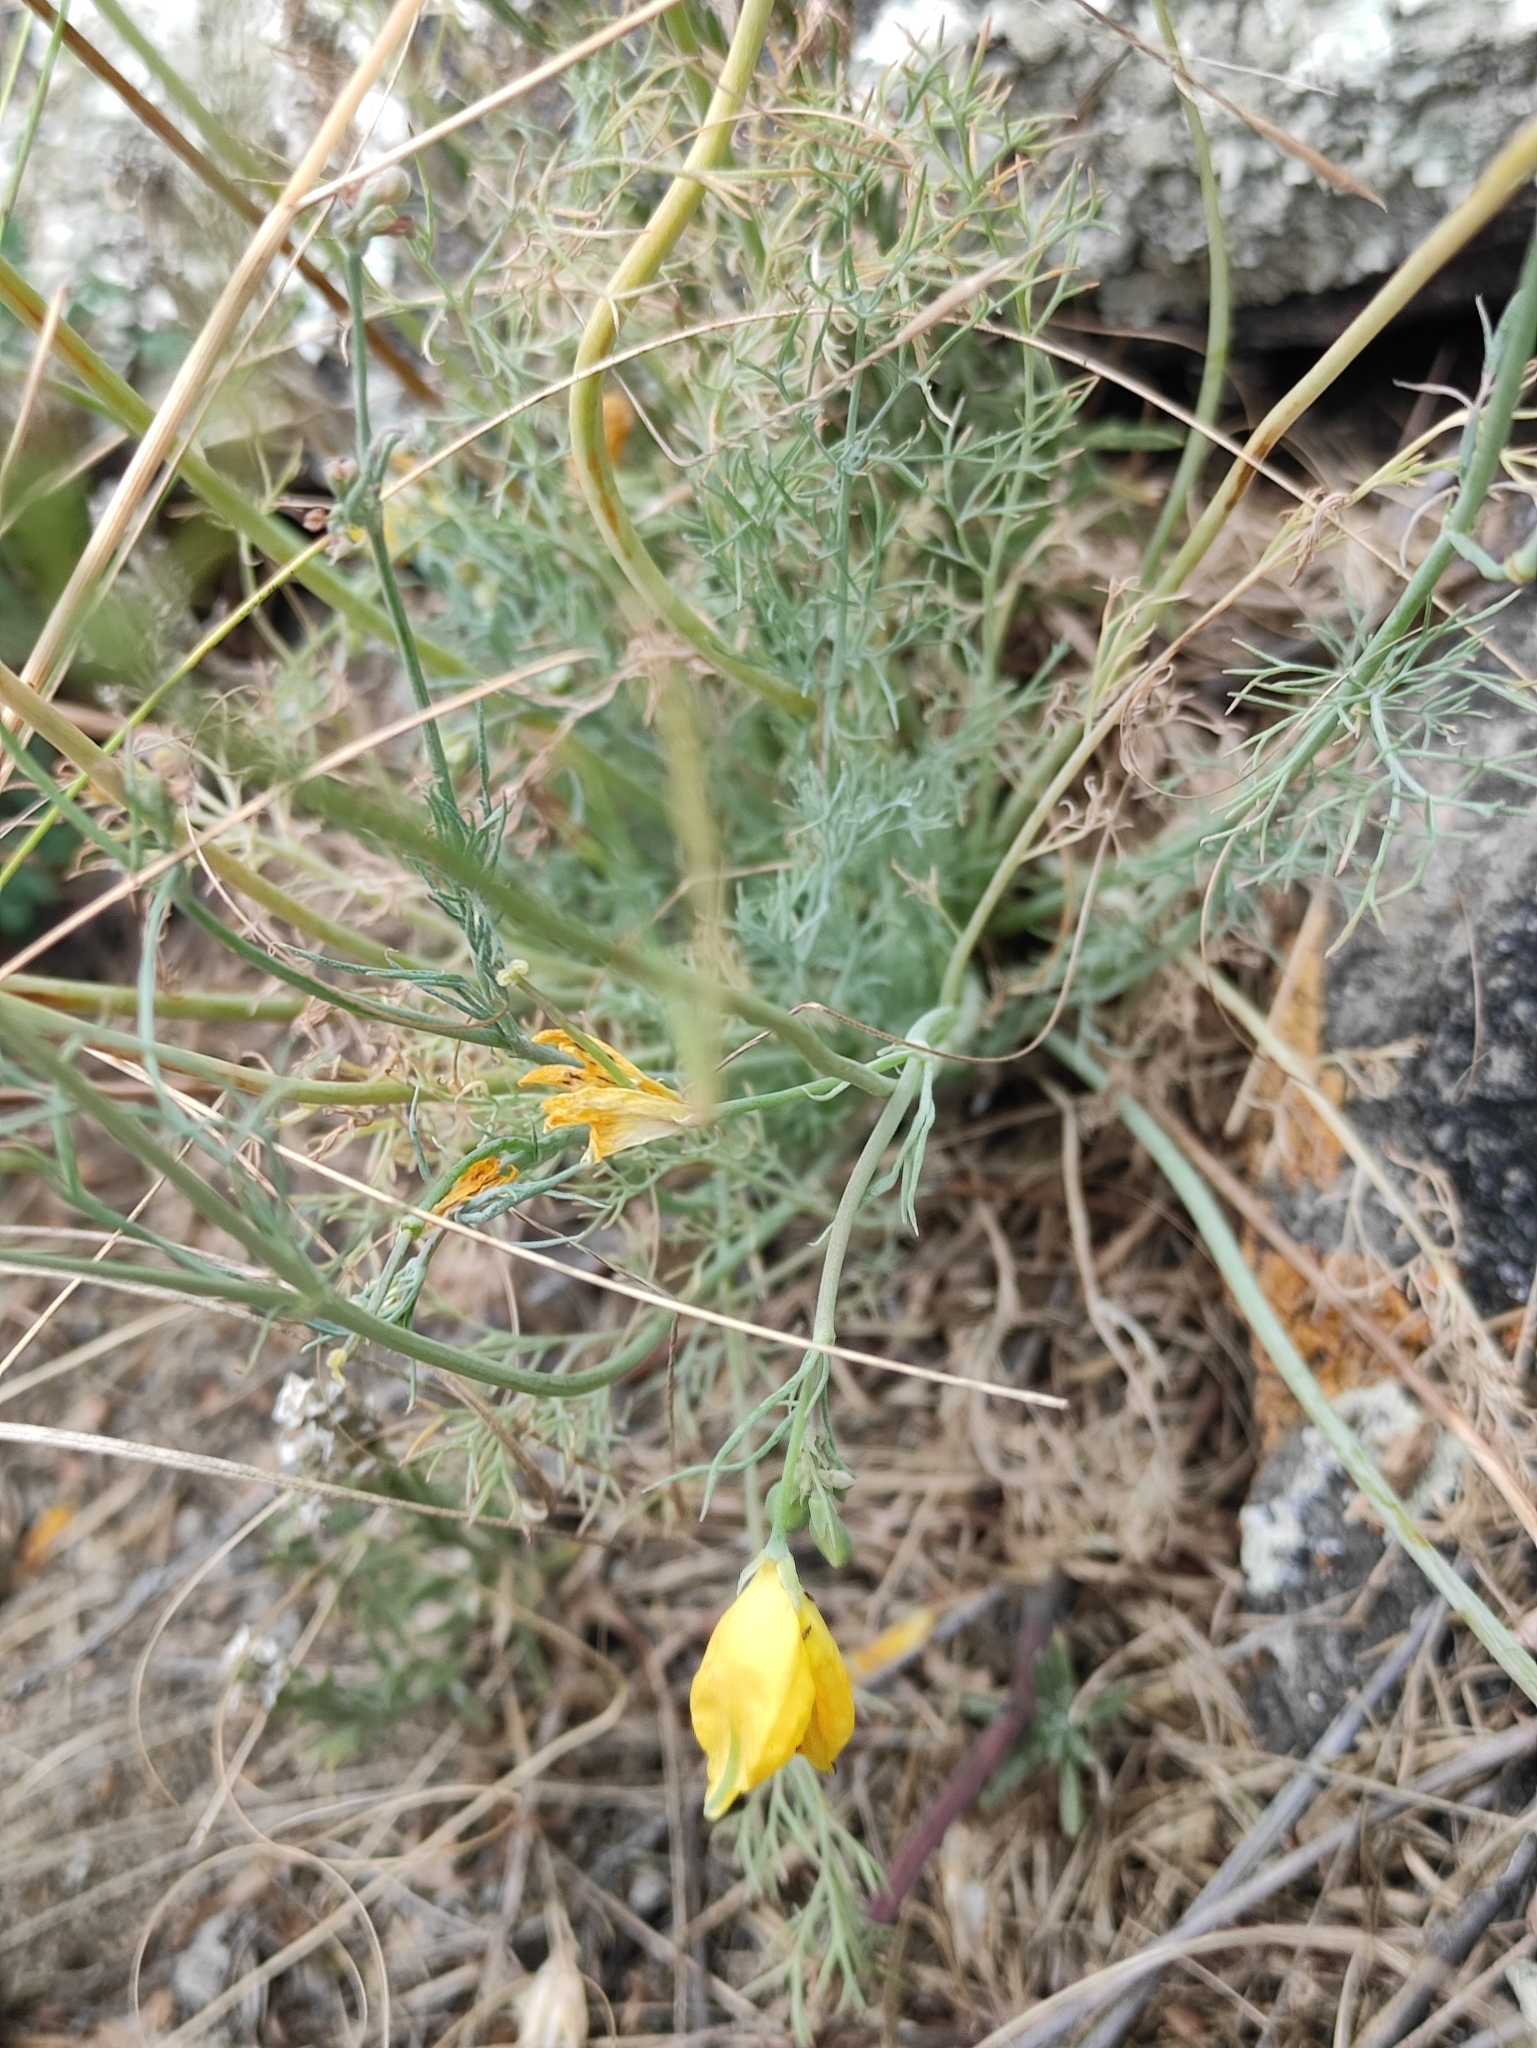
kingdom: Plantae
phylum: Tracheophyta
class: Magnoliopsida
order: Ranunculales
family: Papaveraceae
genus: Hypecoum
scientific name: Hypecoum erectum
